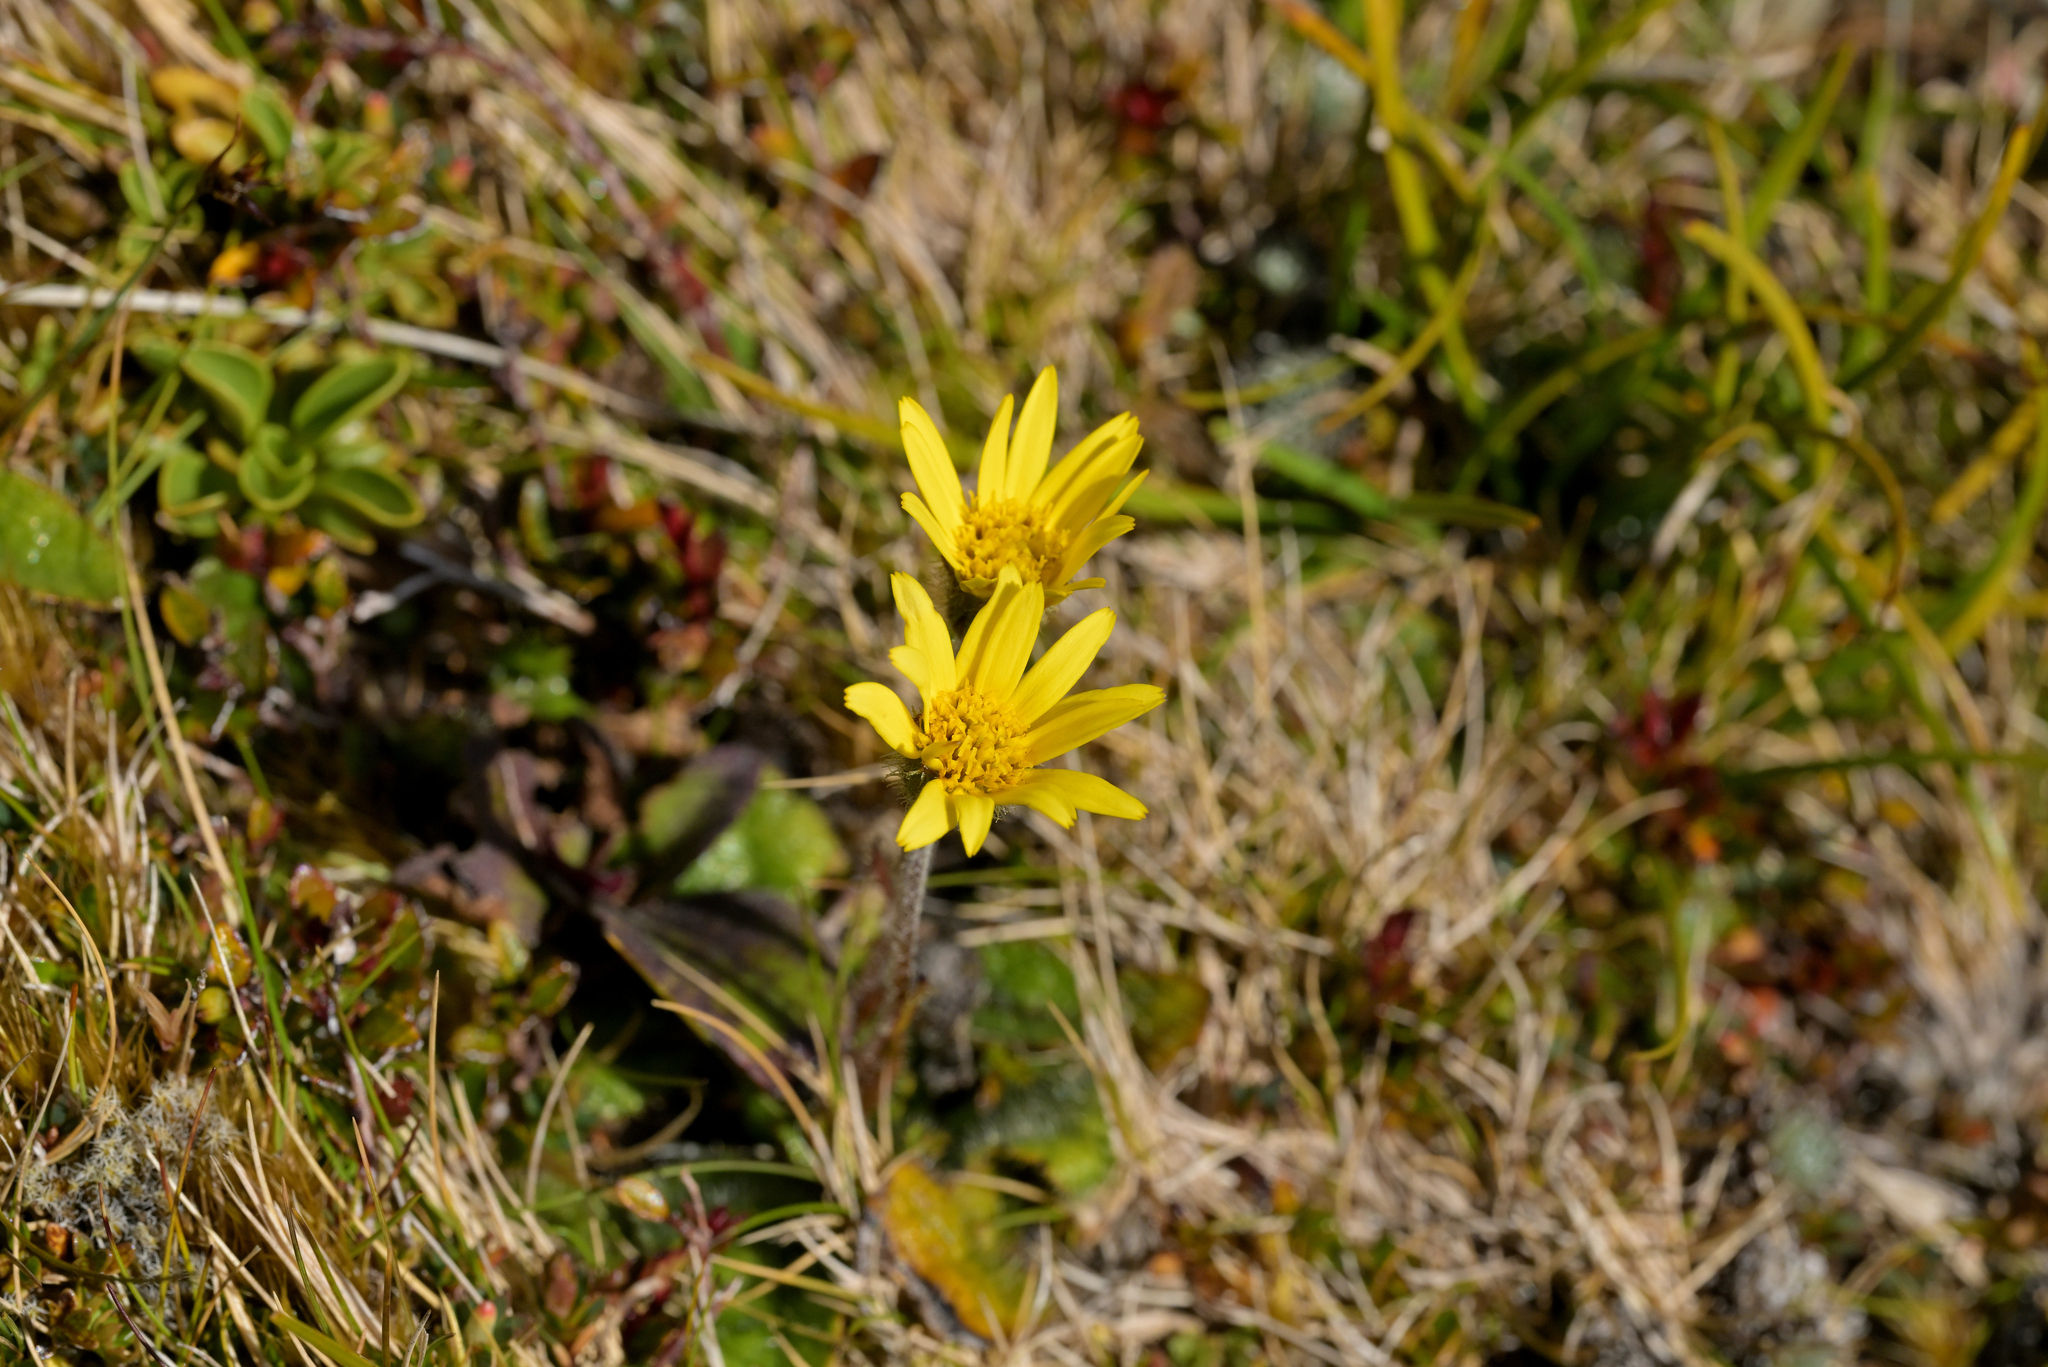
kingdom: Plantae
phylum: Tracheophyta
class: Magnoliopsida
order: Asterales
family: Asteraceae
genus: Brachyglottis
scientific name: Brachyglottis bellidioides
